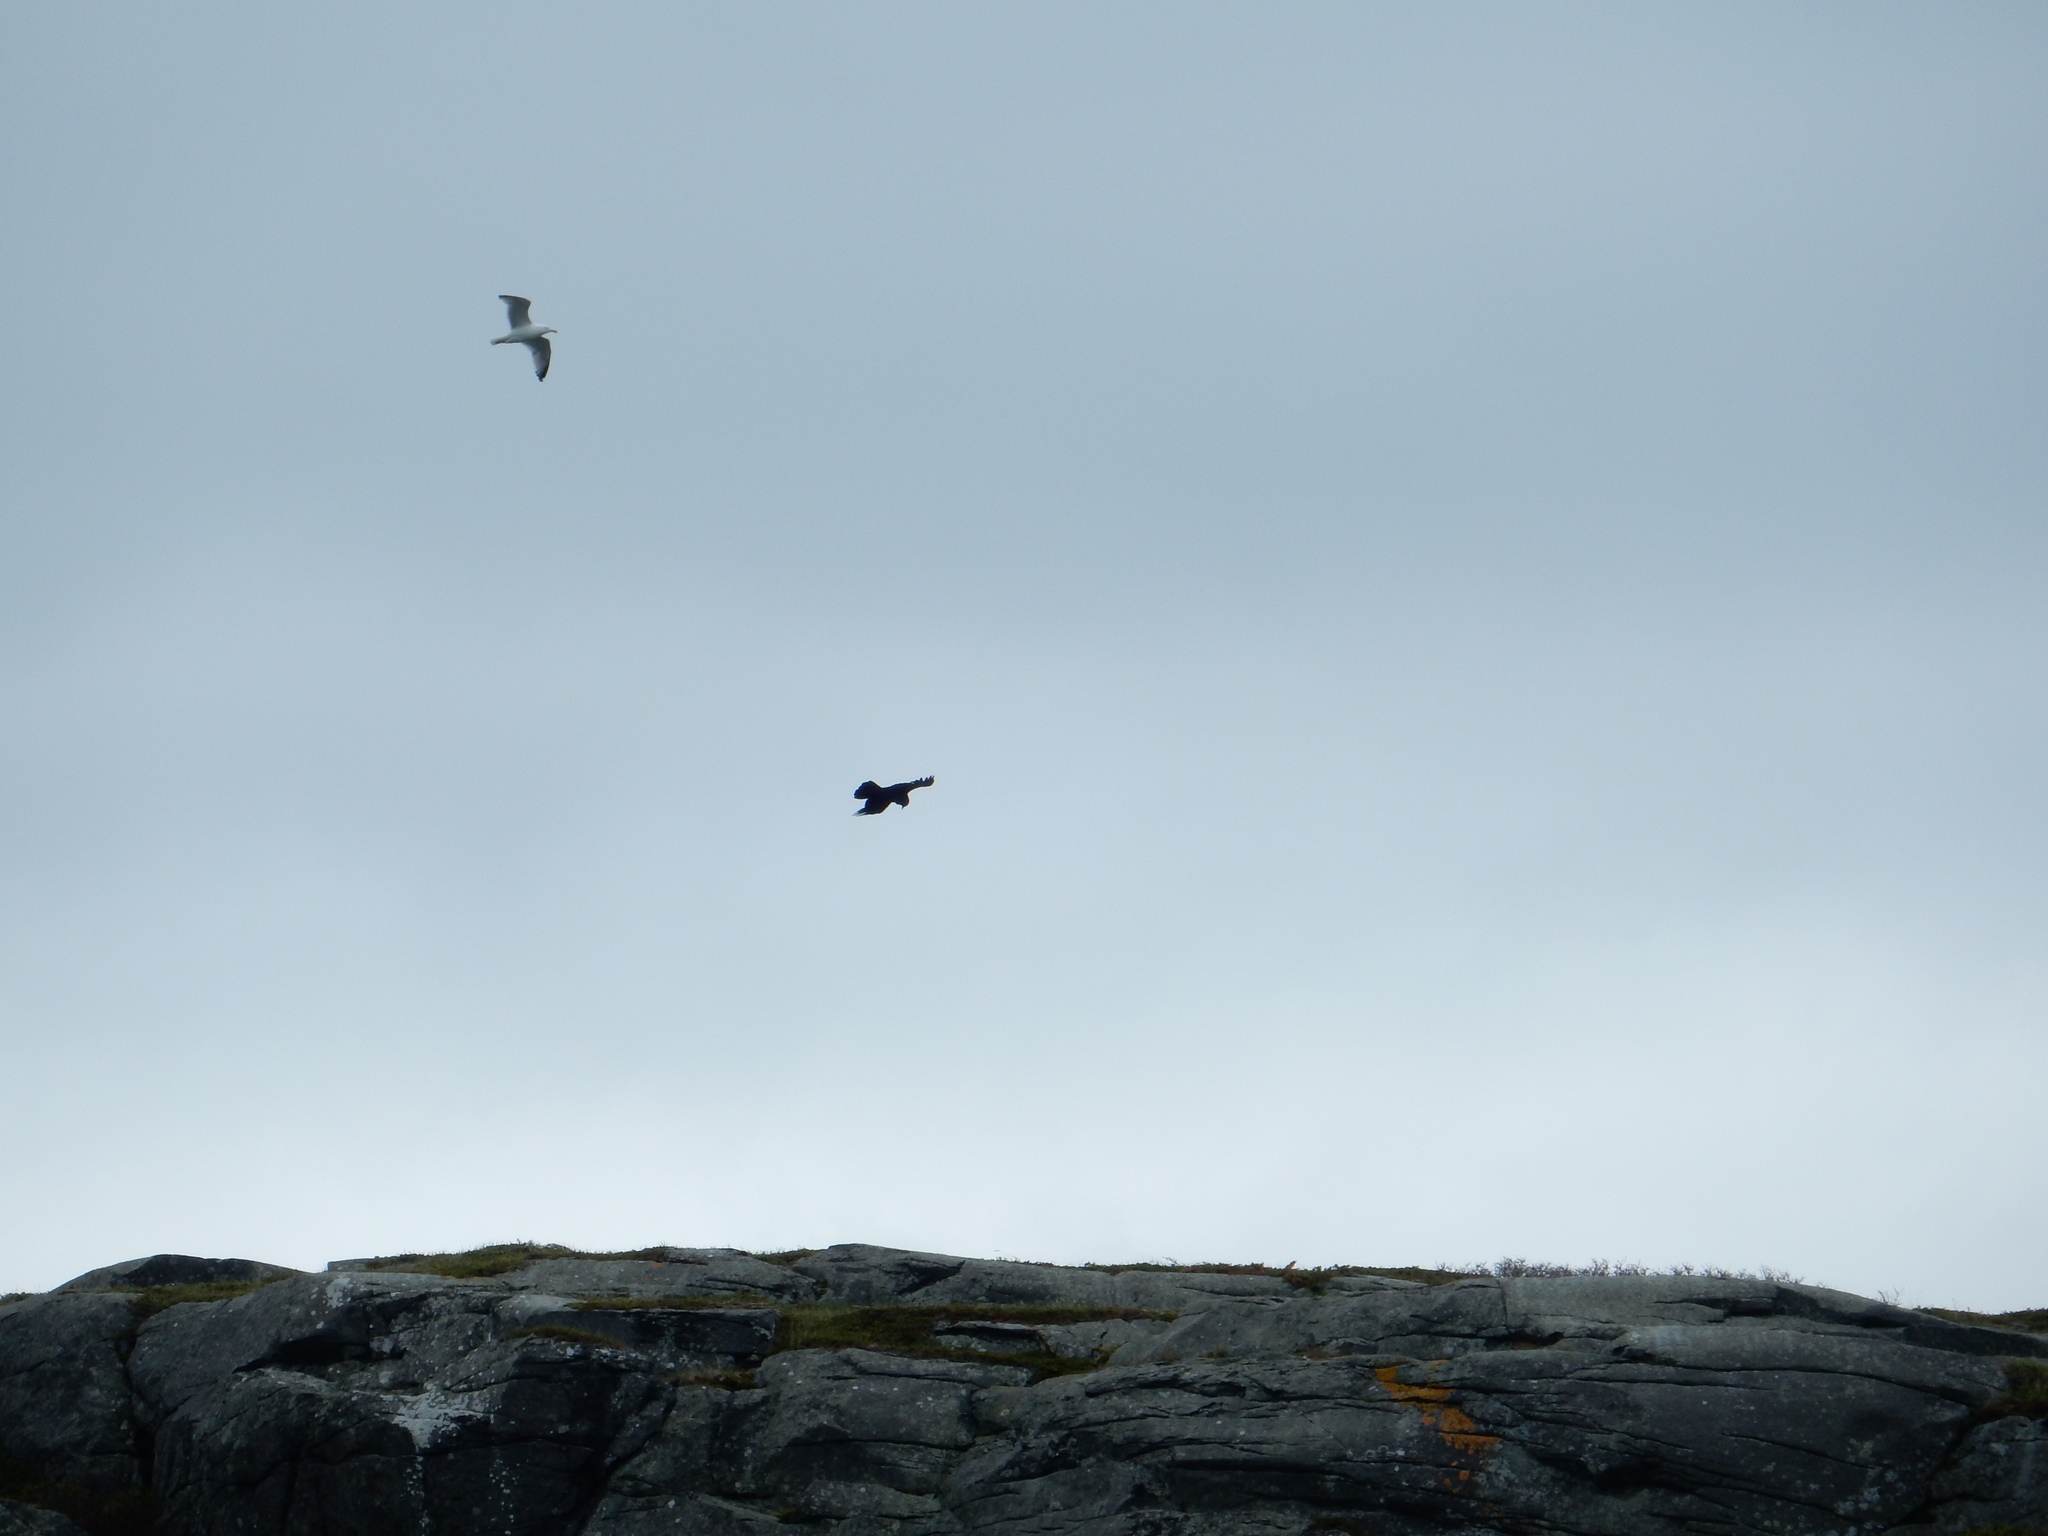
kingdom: Animalia
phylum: Chordata
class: Aves
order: Passeriformes
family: Corvidae
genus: Corvus
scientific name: Corvus corax
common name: Common raven
